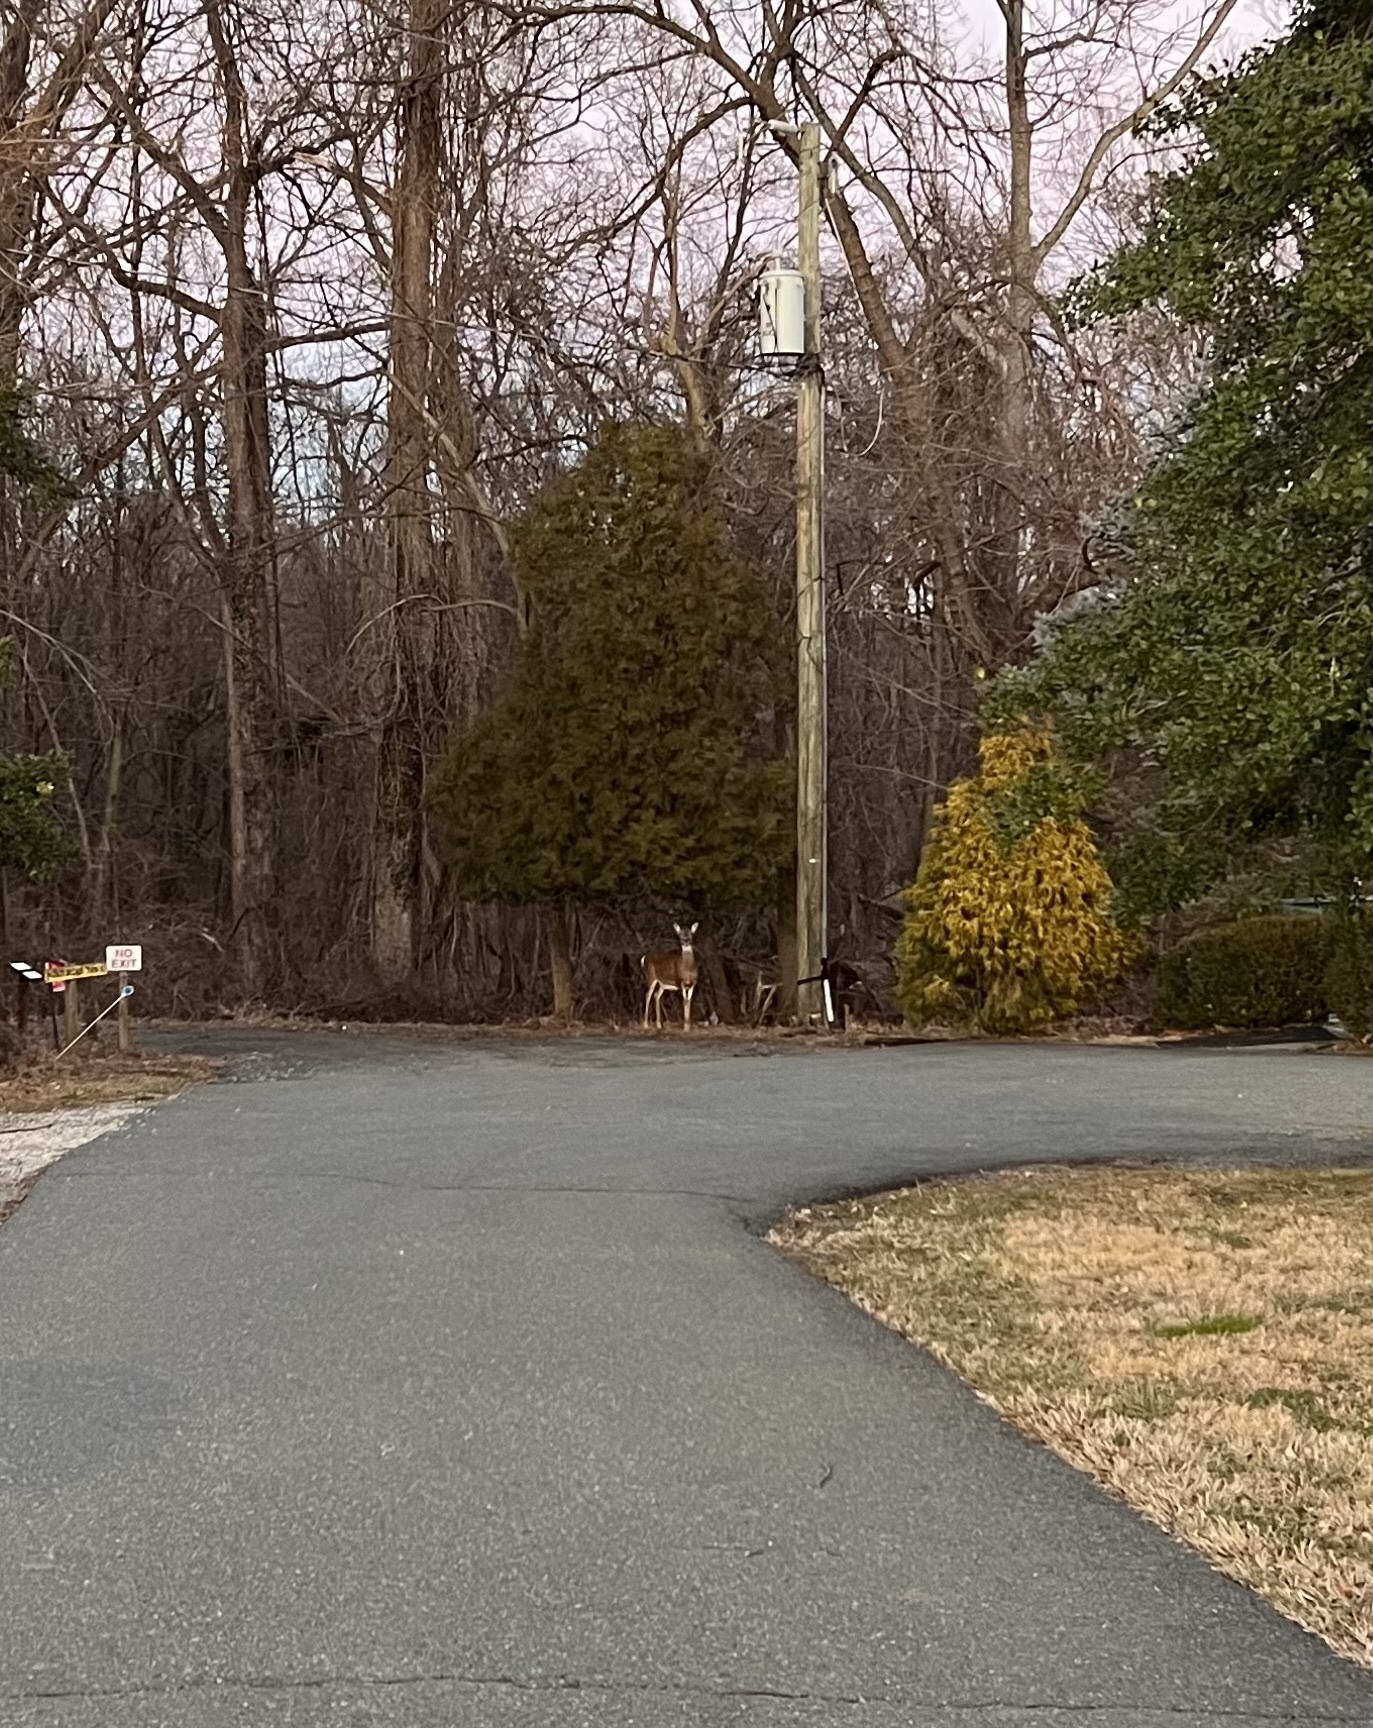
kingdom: Animalia
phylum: Chordata
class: Mammalia
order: Artiodactyla
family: Cervidae
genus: Odocoileus
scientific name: Odocoileus virginianus
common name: White-tailed deer
